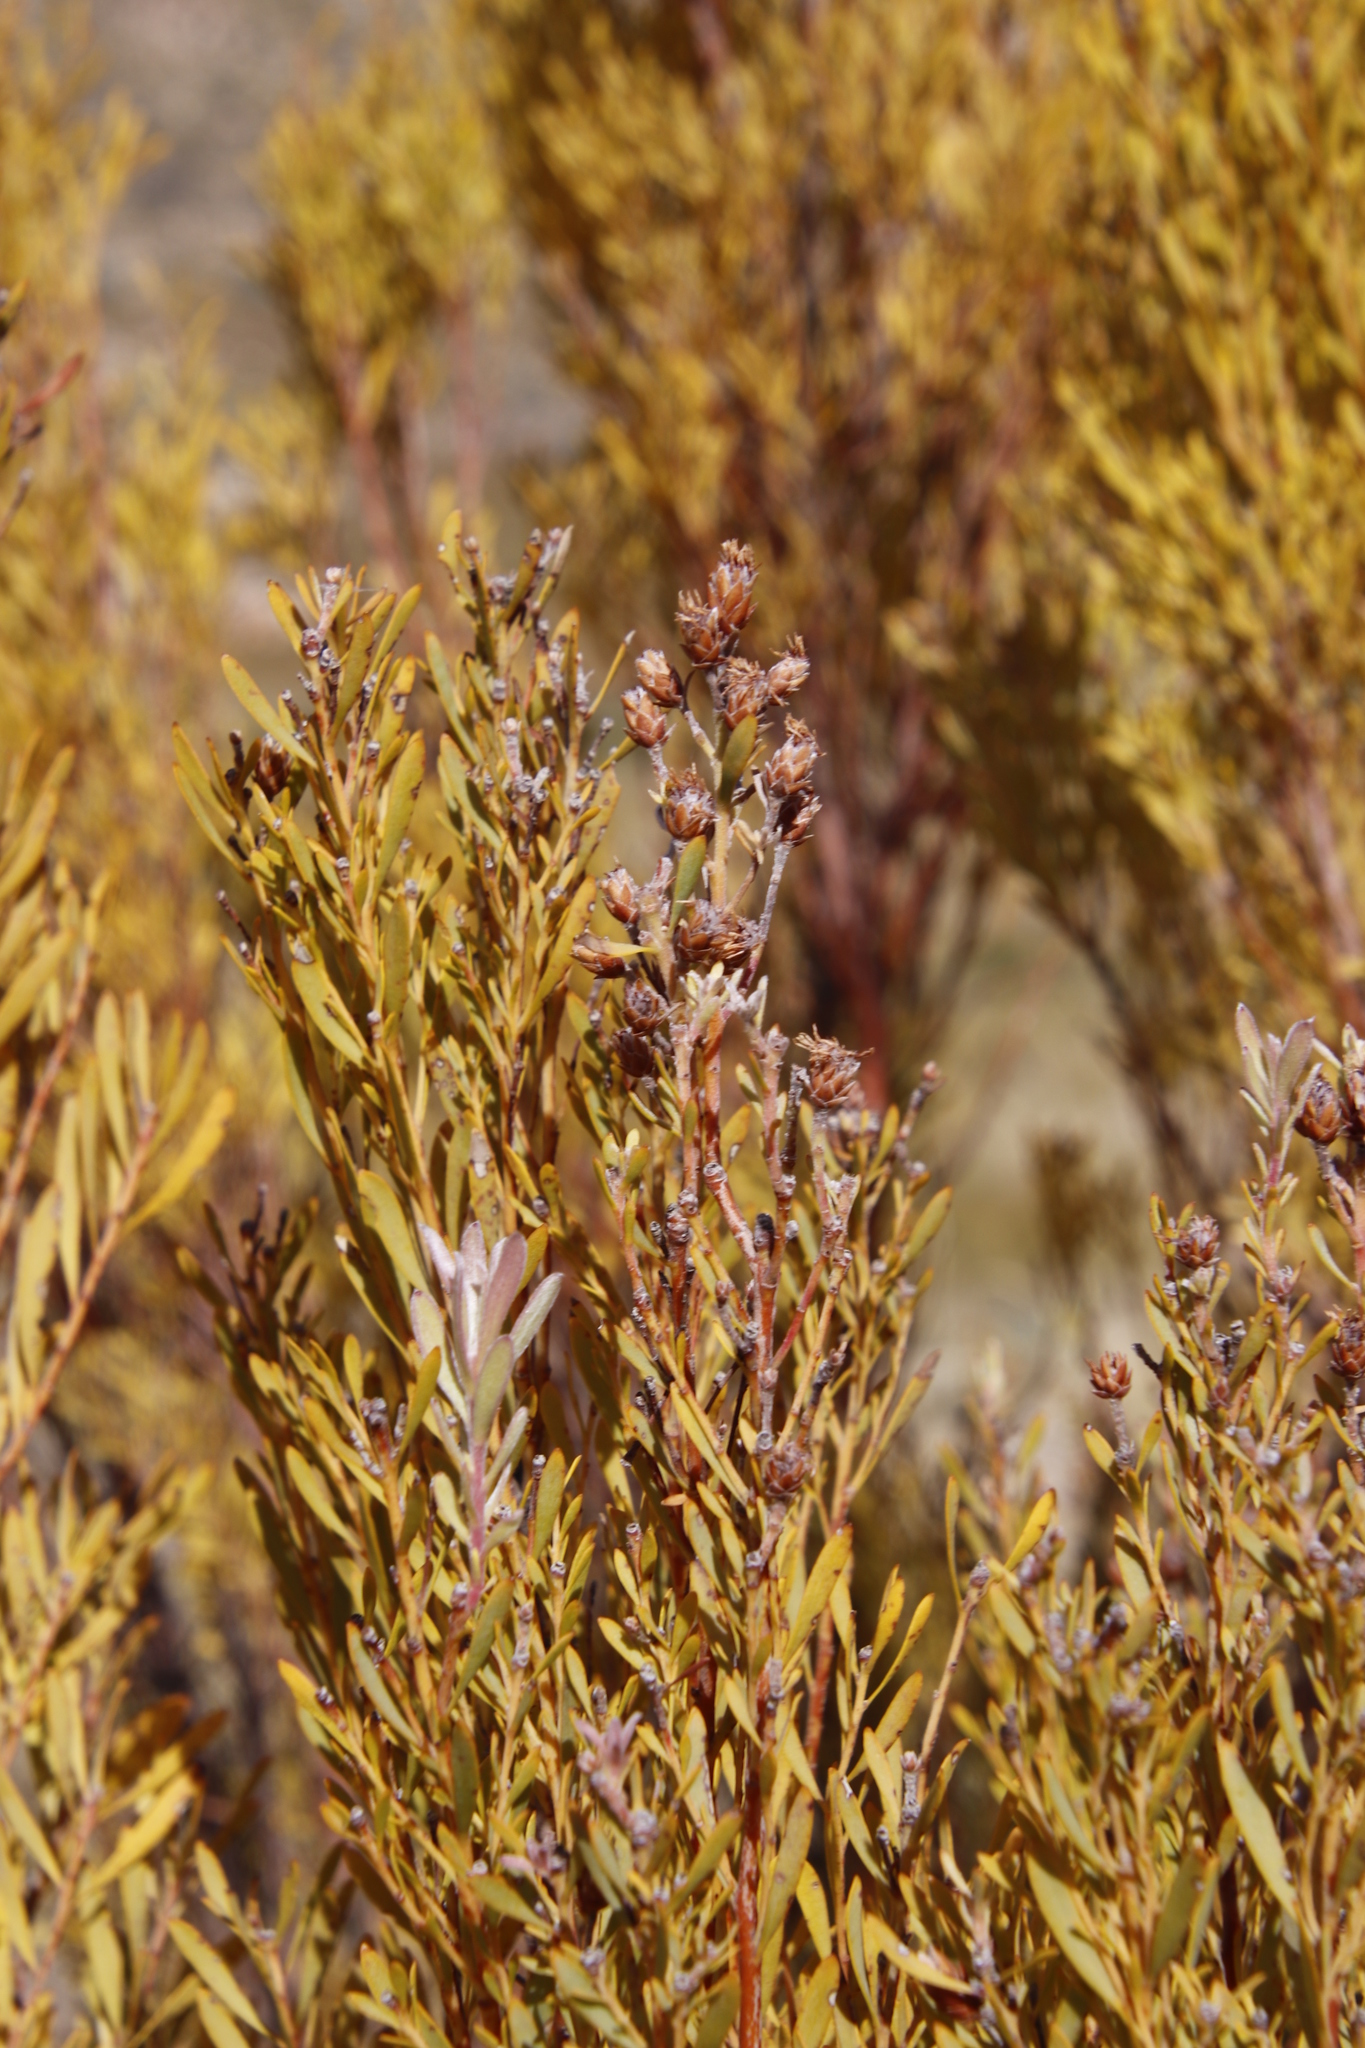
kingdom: Plantae
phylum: Tracheophyta
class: Magnoliopsida
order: Proteales
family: Proteaceae
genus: Leucadendron
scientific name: Leucadendron rubrum
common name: Spinning top
